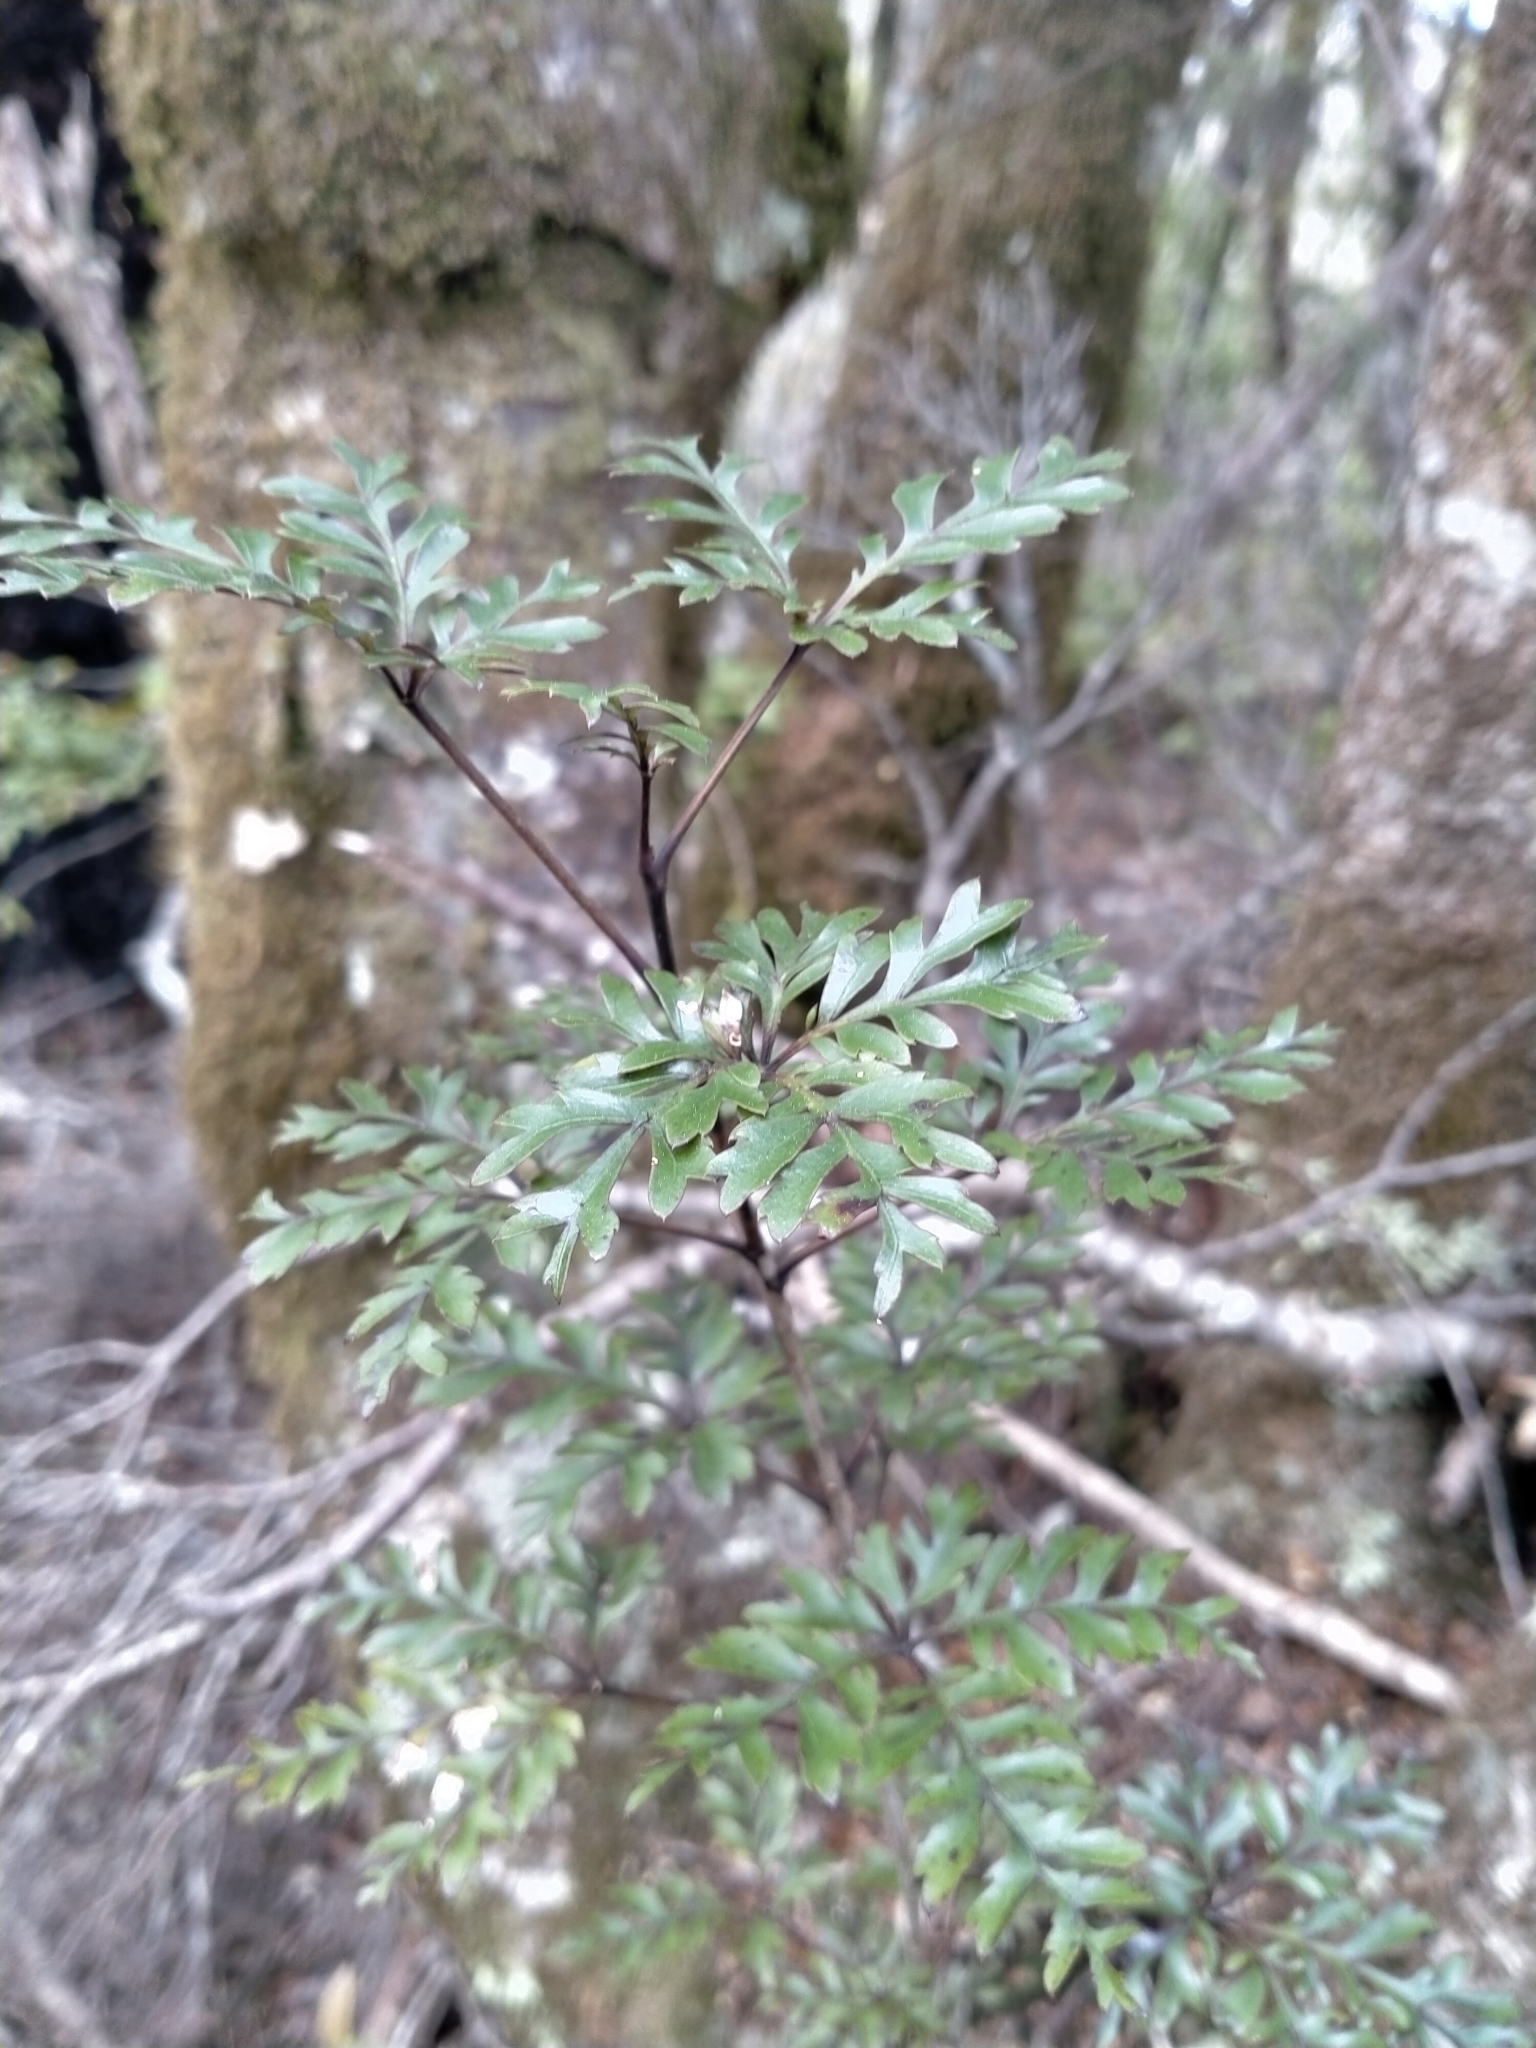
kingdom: Plantae
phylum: Tracheophyta
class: Magnoliopsida
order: Apiales
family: Araliaceae
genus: Raukaua
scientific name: Raukaua simplex
